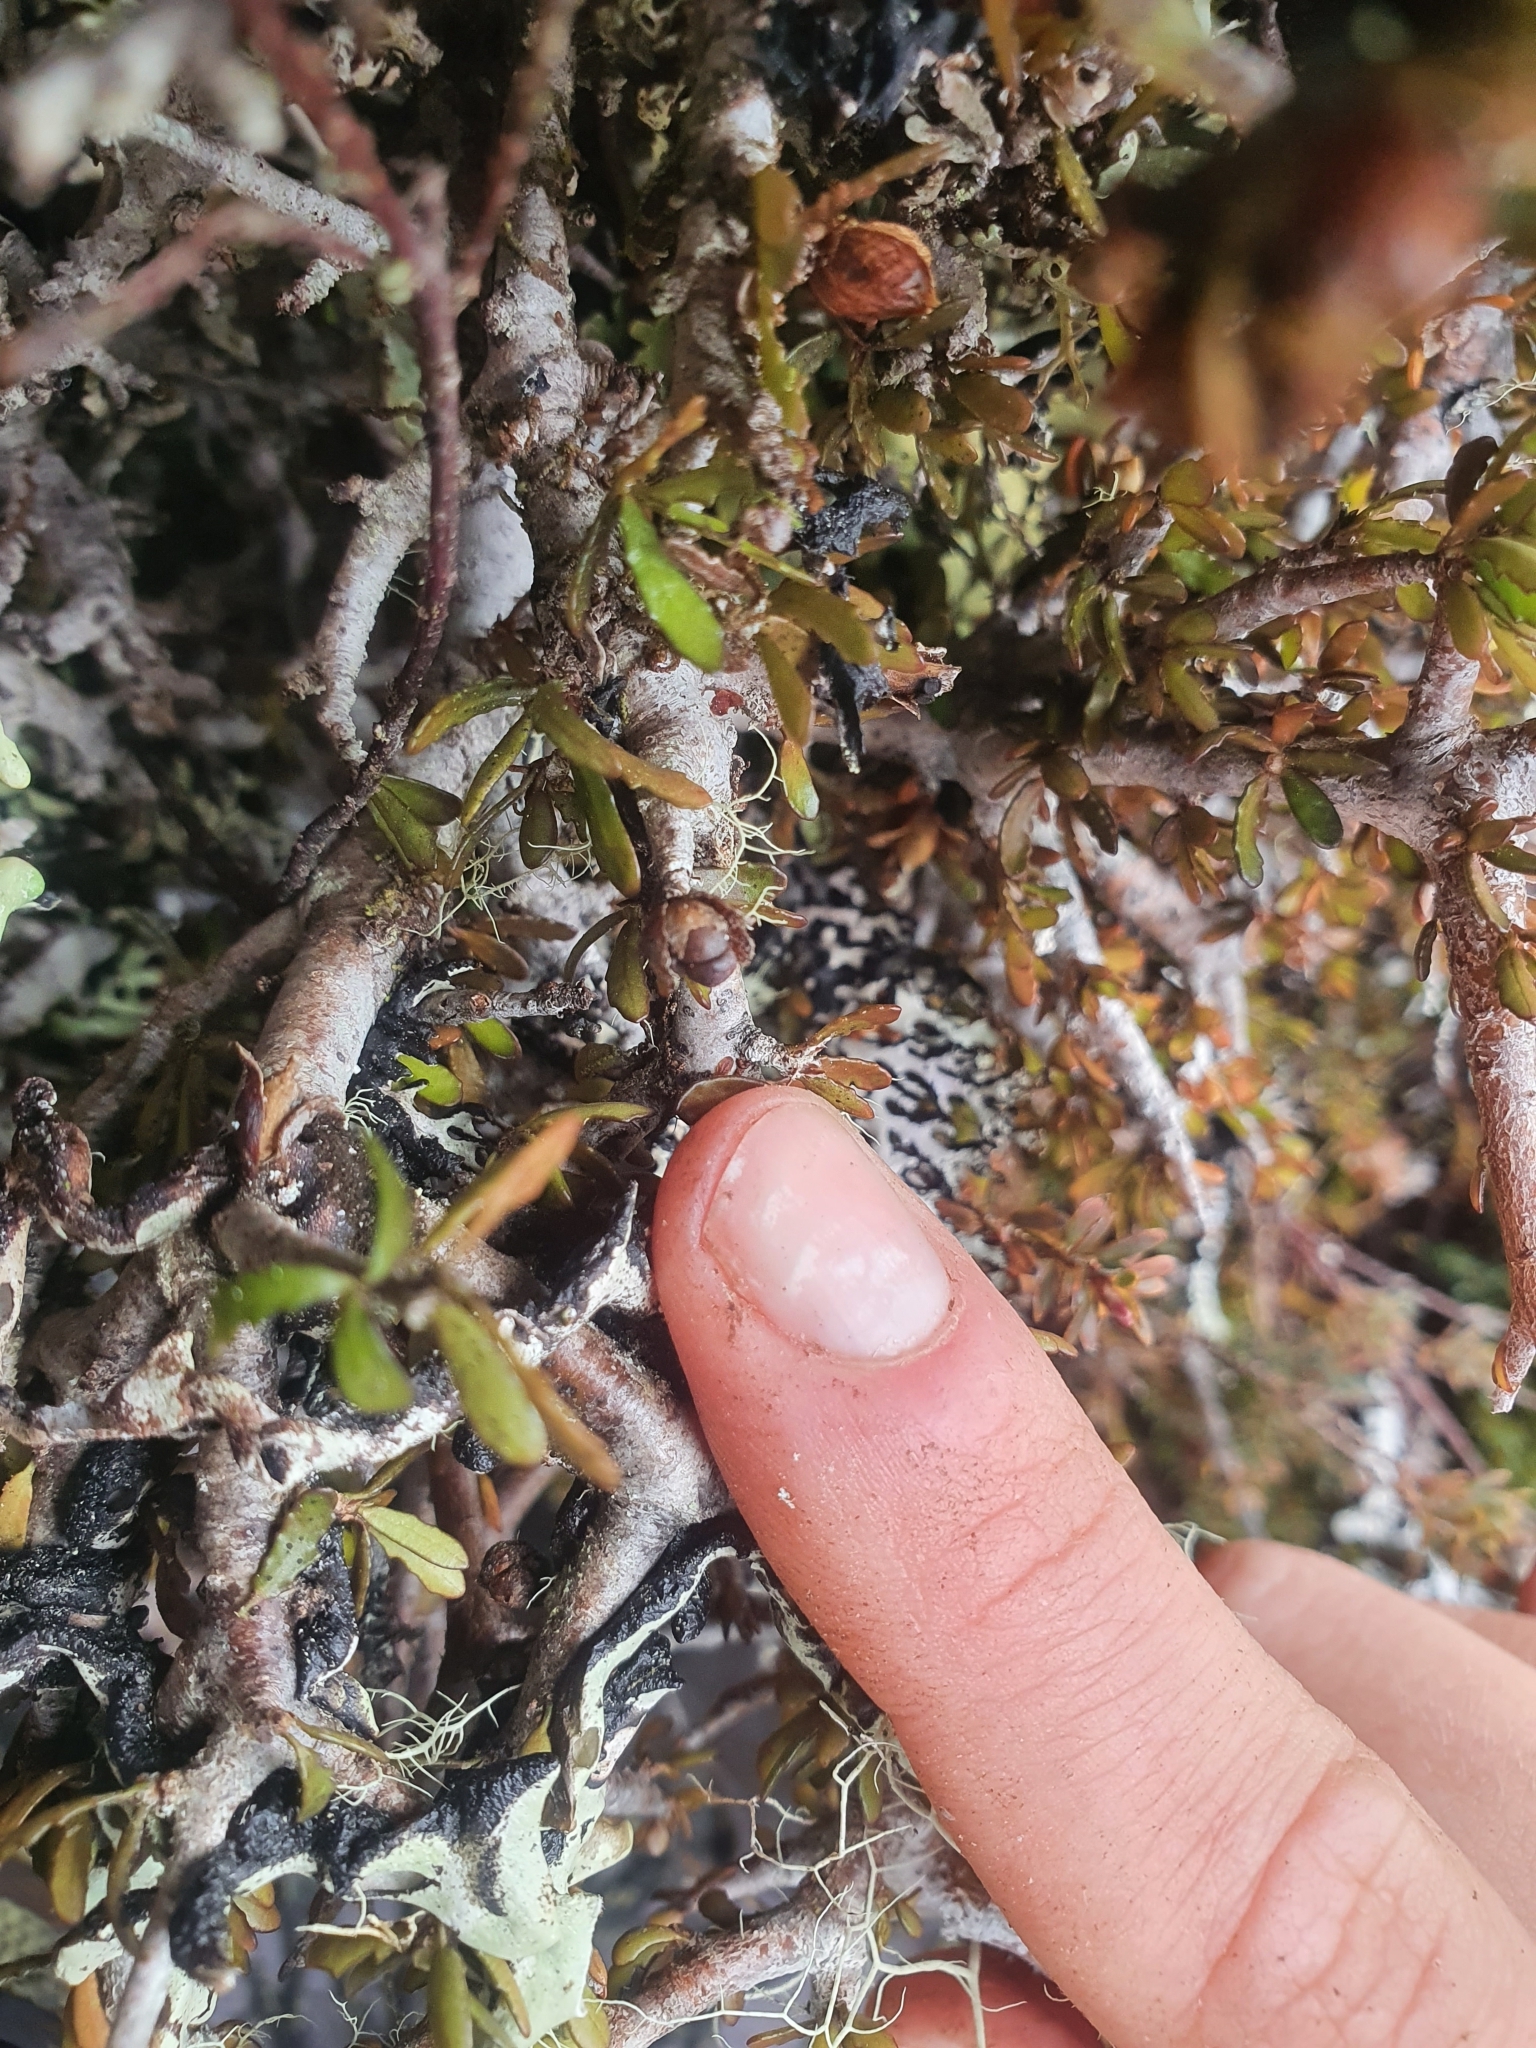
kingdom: Plantae
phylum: Tracheophyta
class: Magnoliopsida
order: Apiales
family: Pittosporaceae
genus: Pittosporum
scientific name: Pittosporum rigidum
